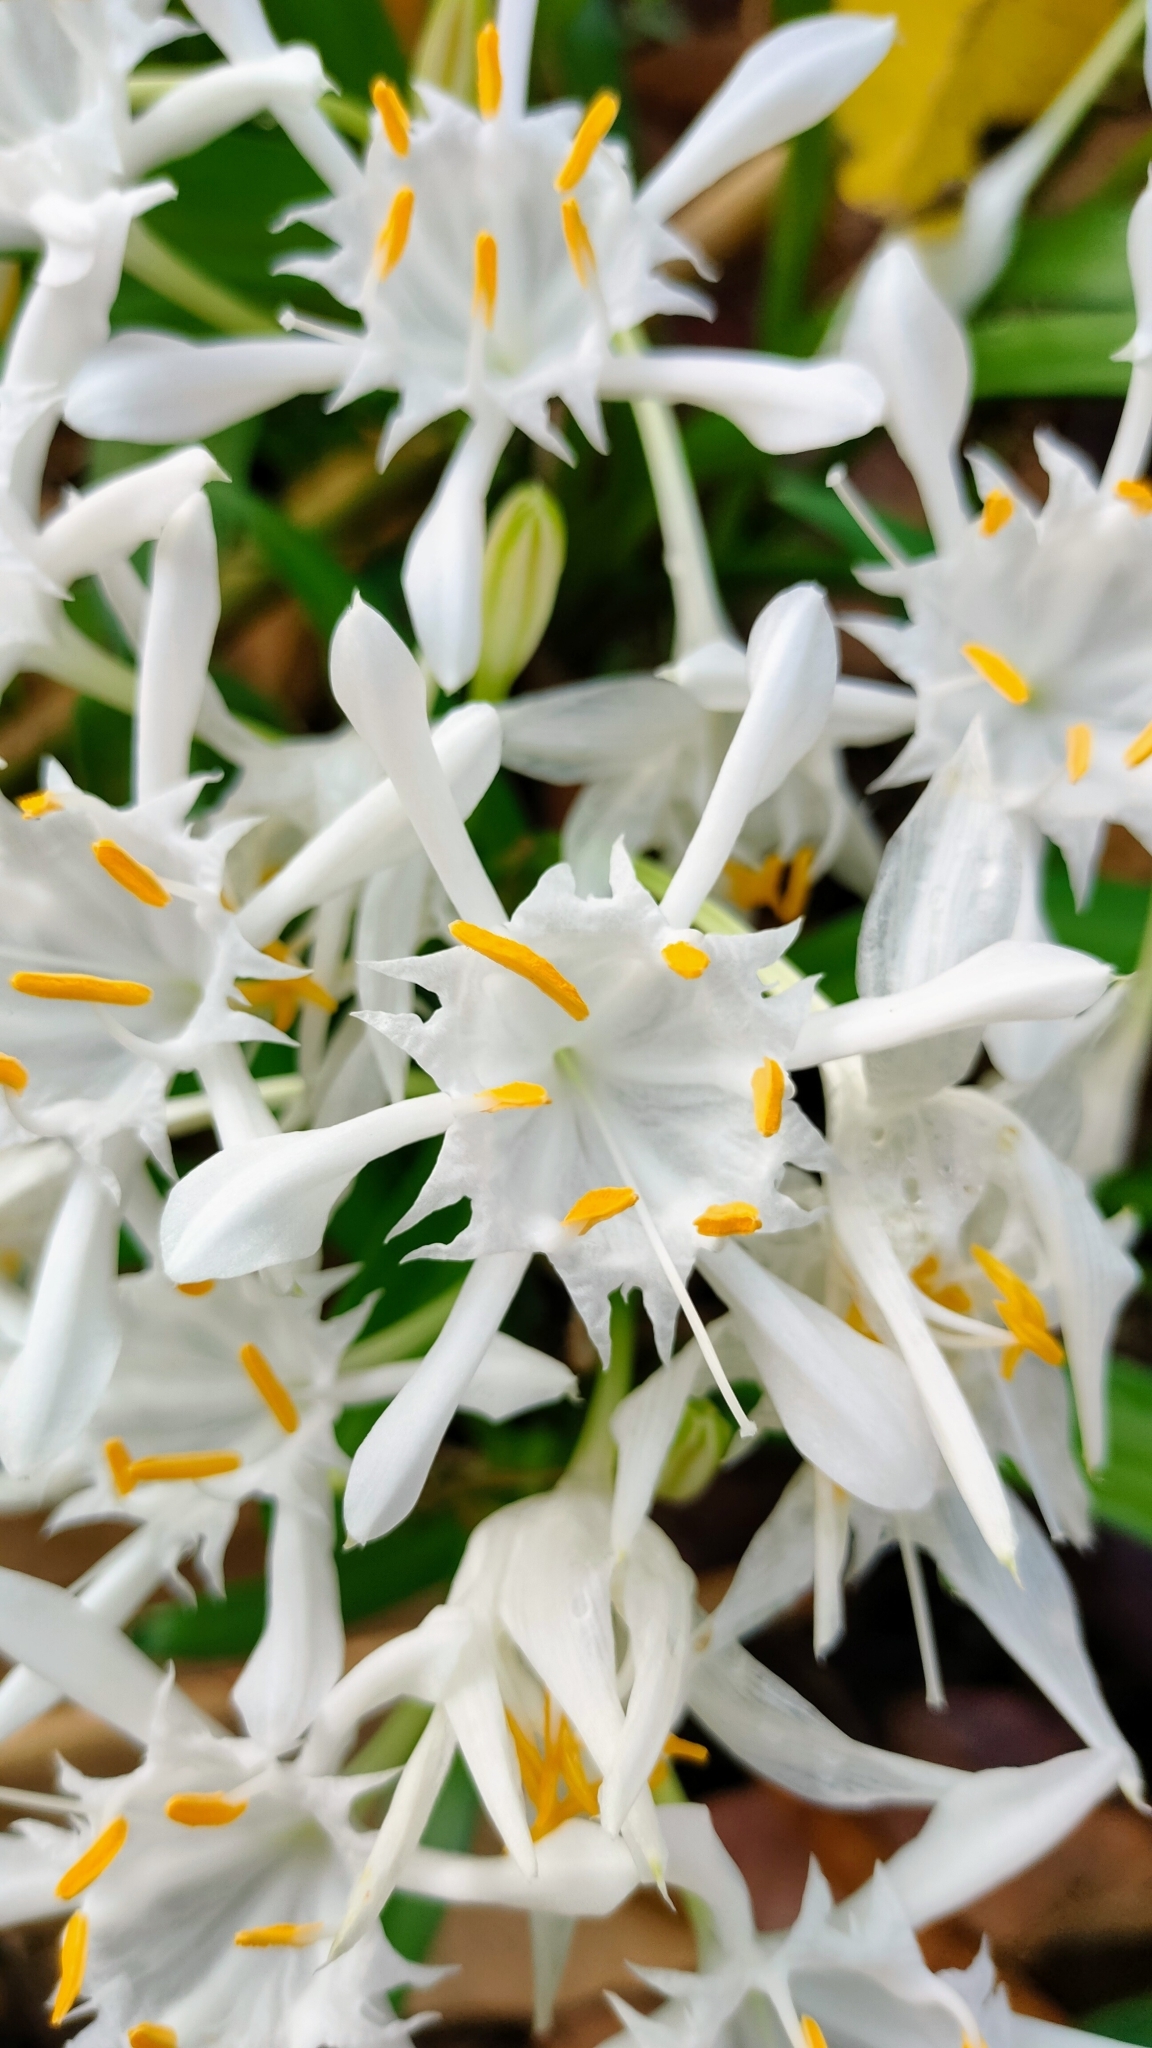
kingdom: Plantae
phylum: Tracheophyta
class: Liliopsida
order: Asparagales
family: Amaryllidaceae
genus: Pancratium
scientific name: Pancratium zeylanicum
